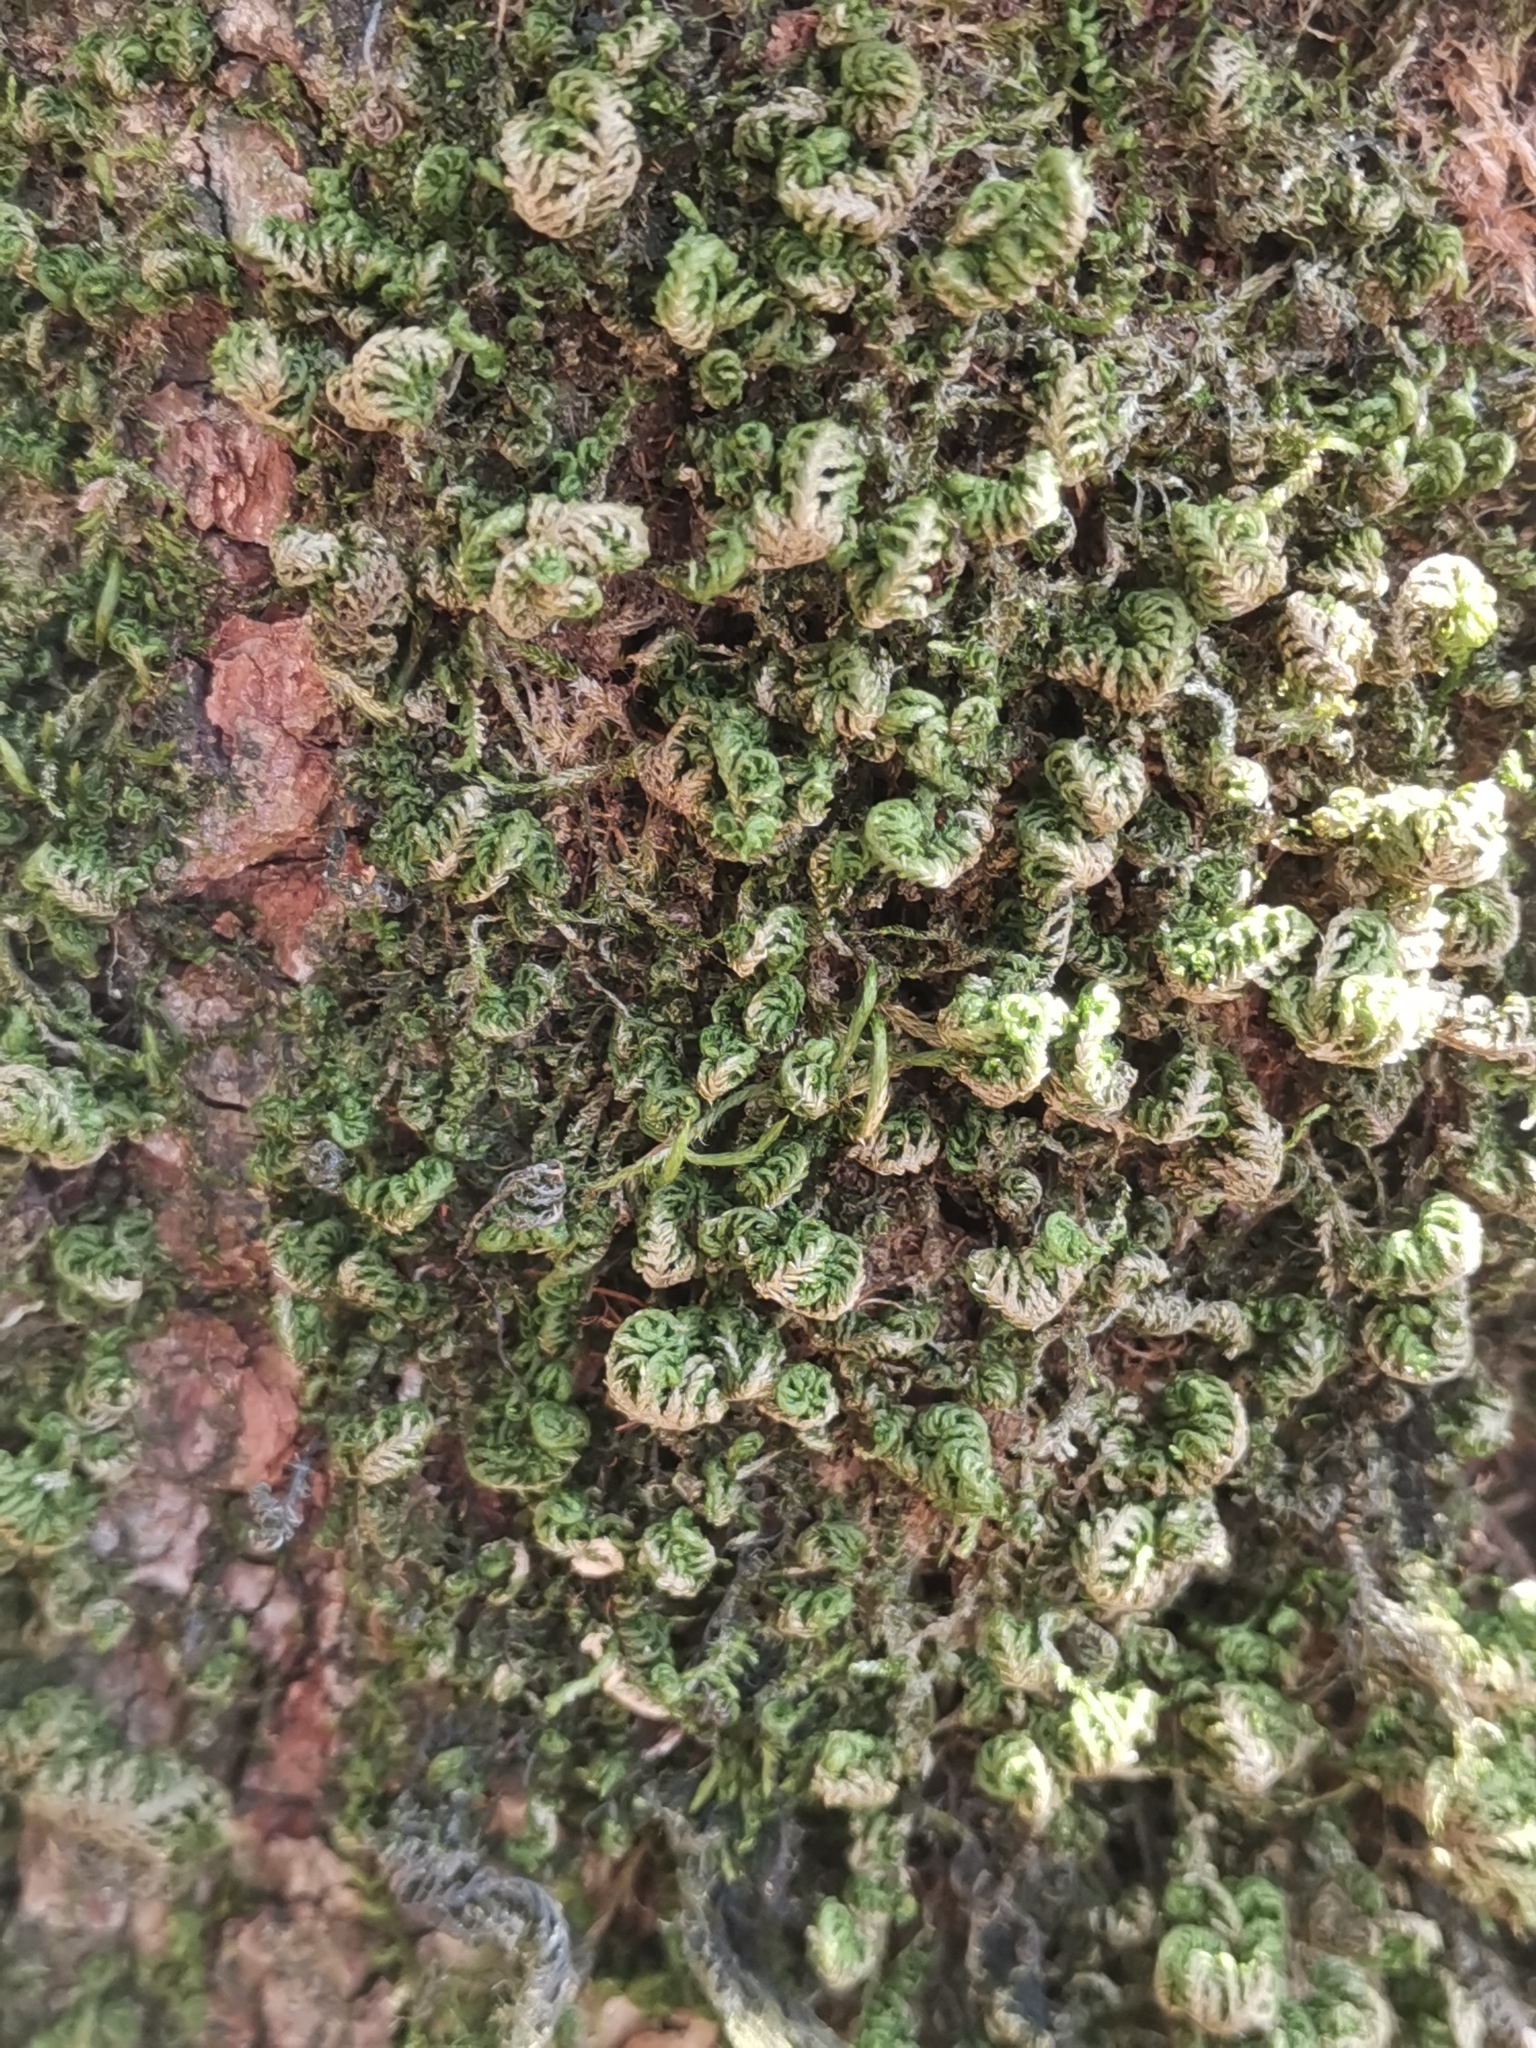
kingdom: Plantae
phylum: Bryophyta
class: Bryopsida
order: Hypnales
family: Neckeraceae
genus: Leptodon
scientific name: Leptodon smithii
